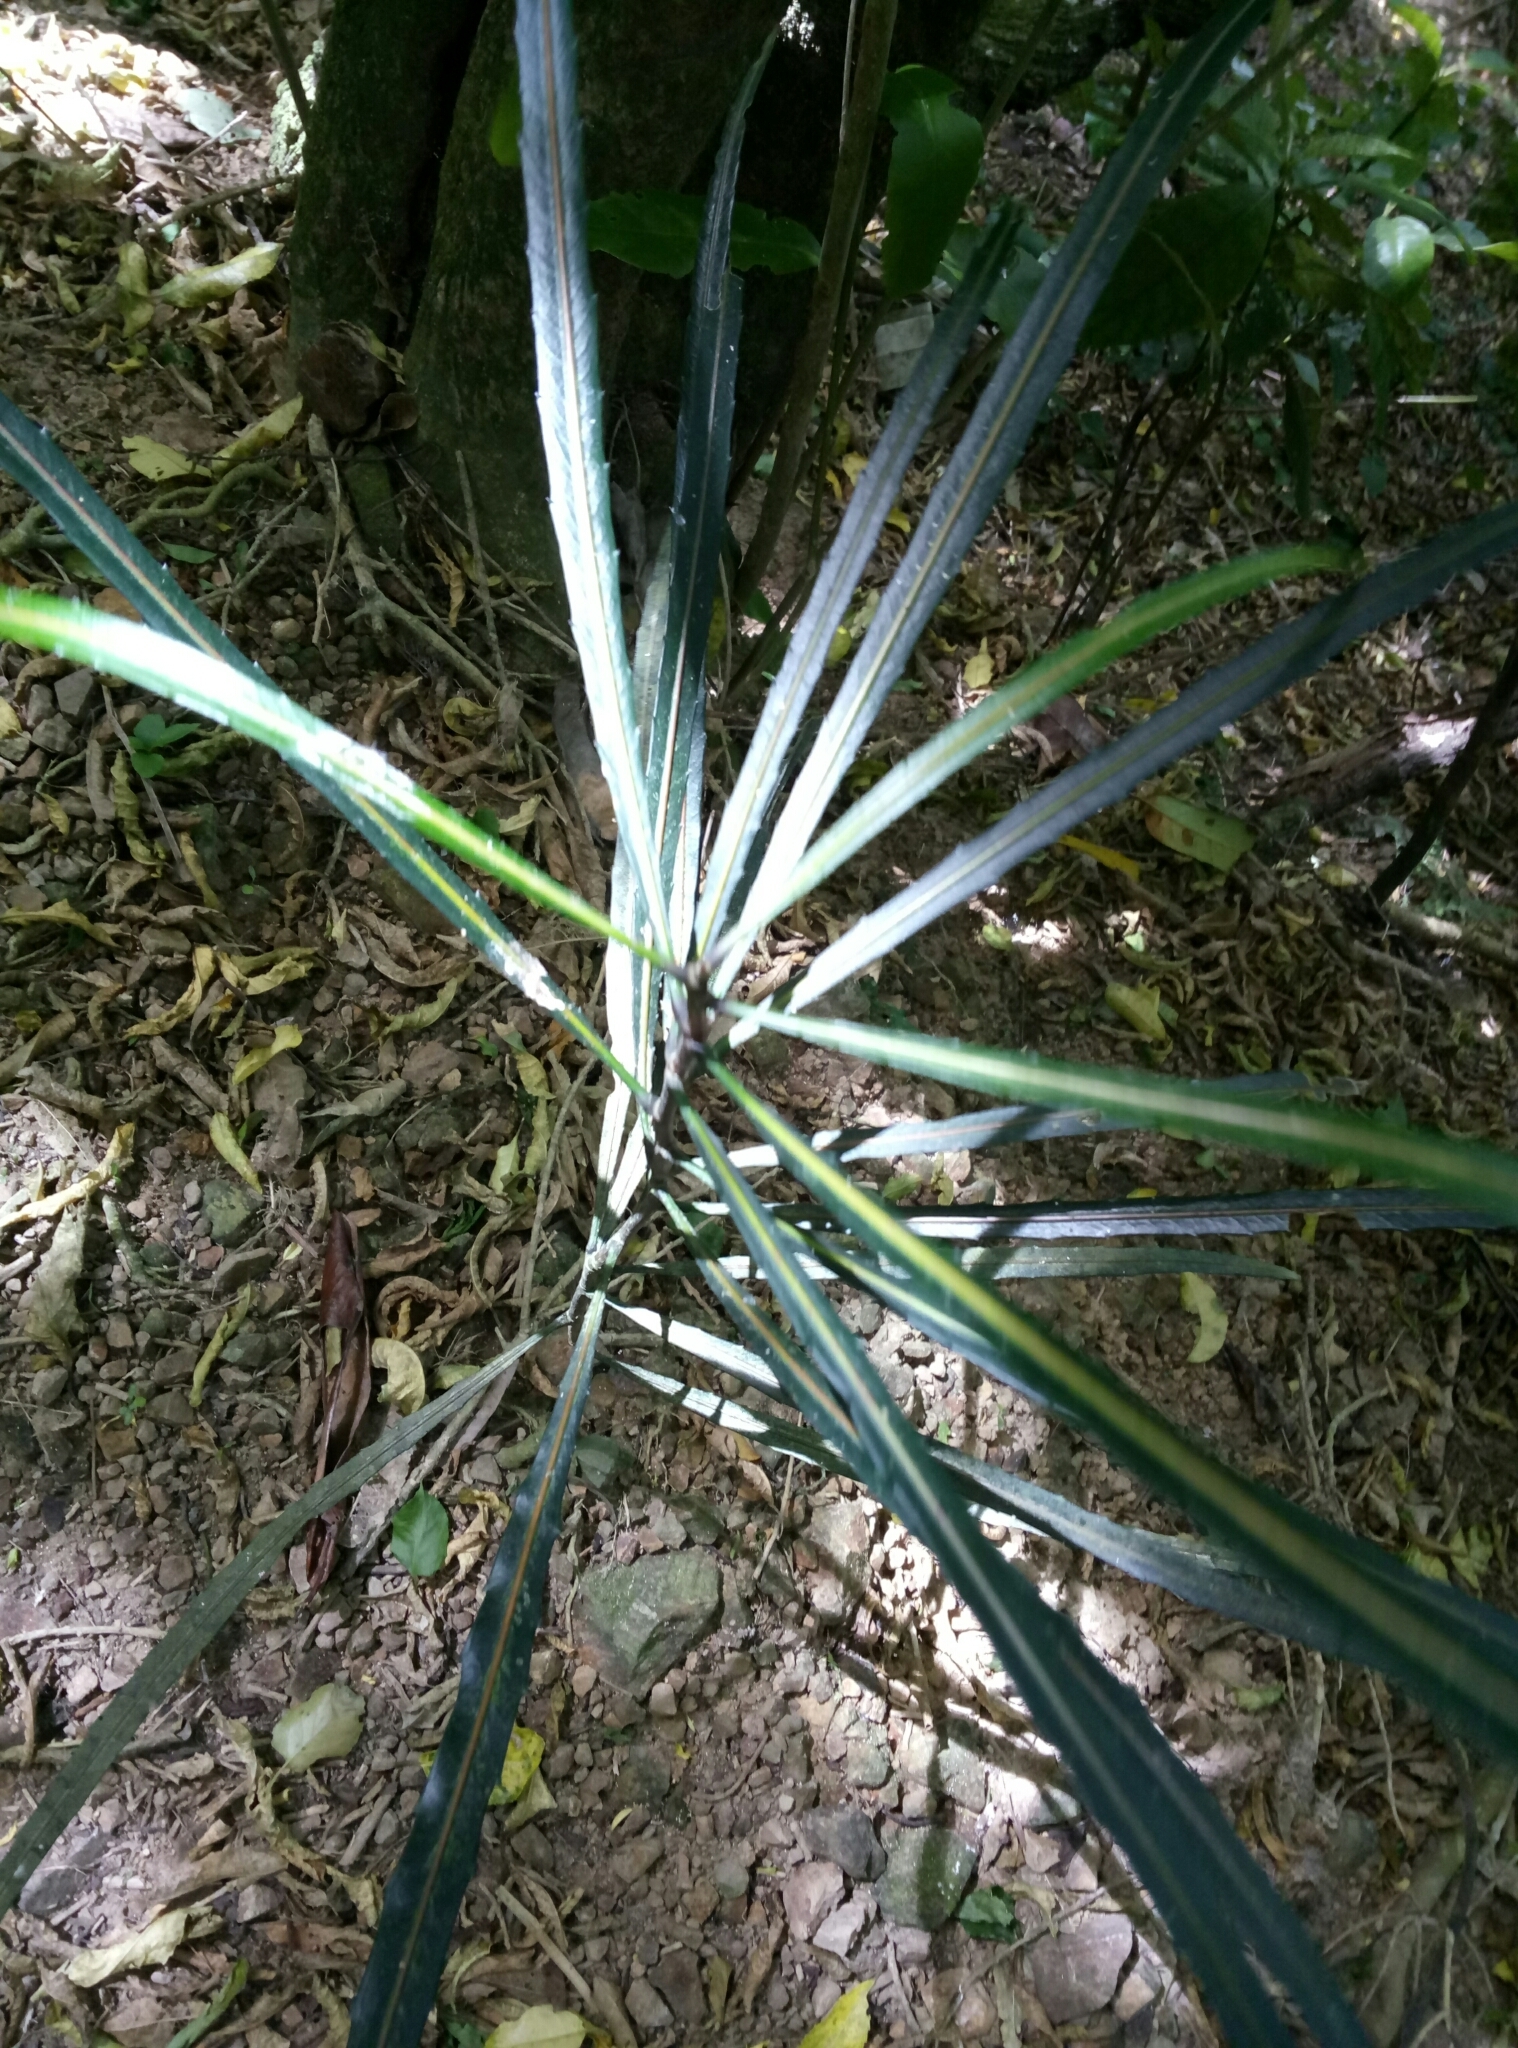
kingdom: Plantae
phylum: Tracheophyta
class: Magnoliopsida
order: Apiales
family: Araliaceae
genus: Pseudopanax
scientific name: Pseudopanax crassifolius
